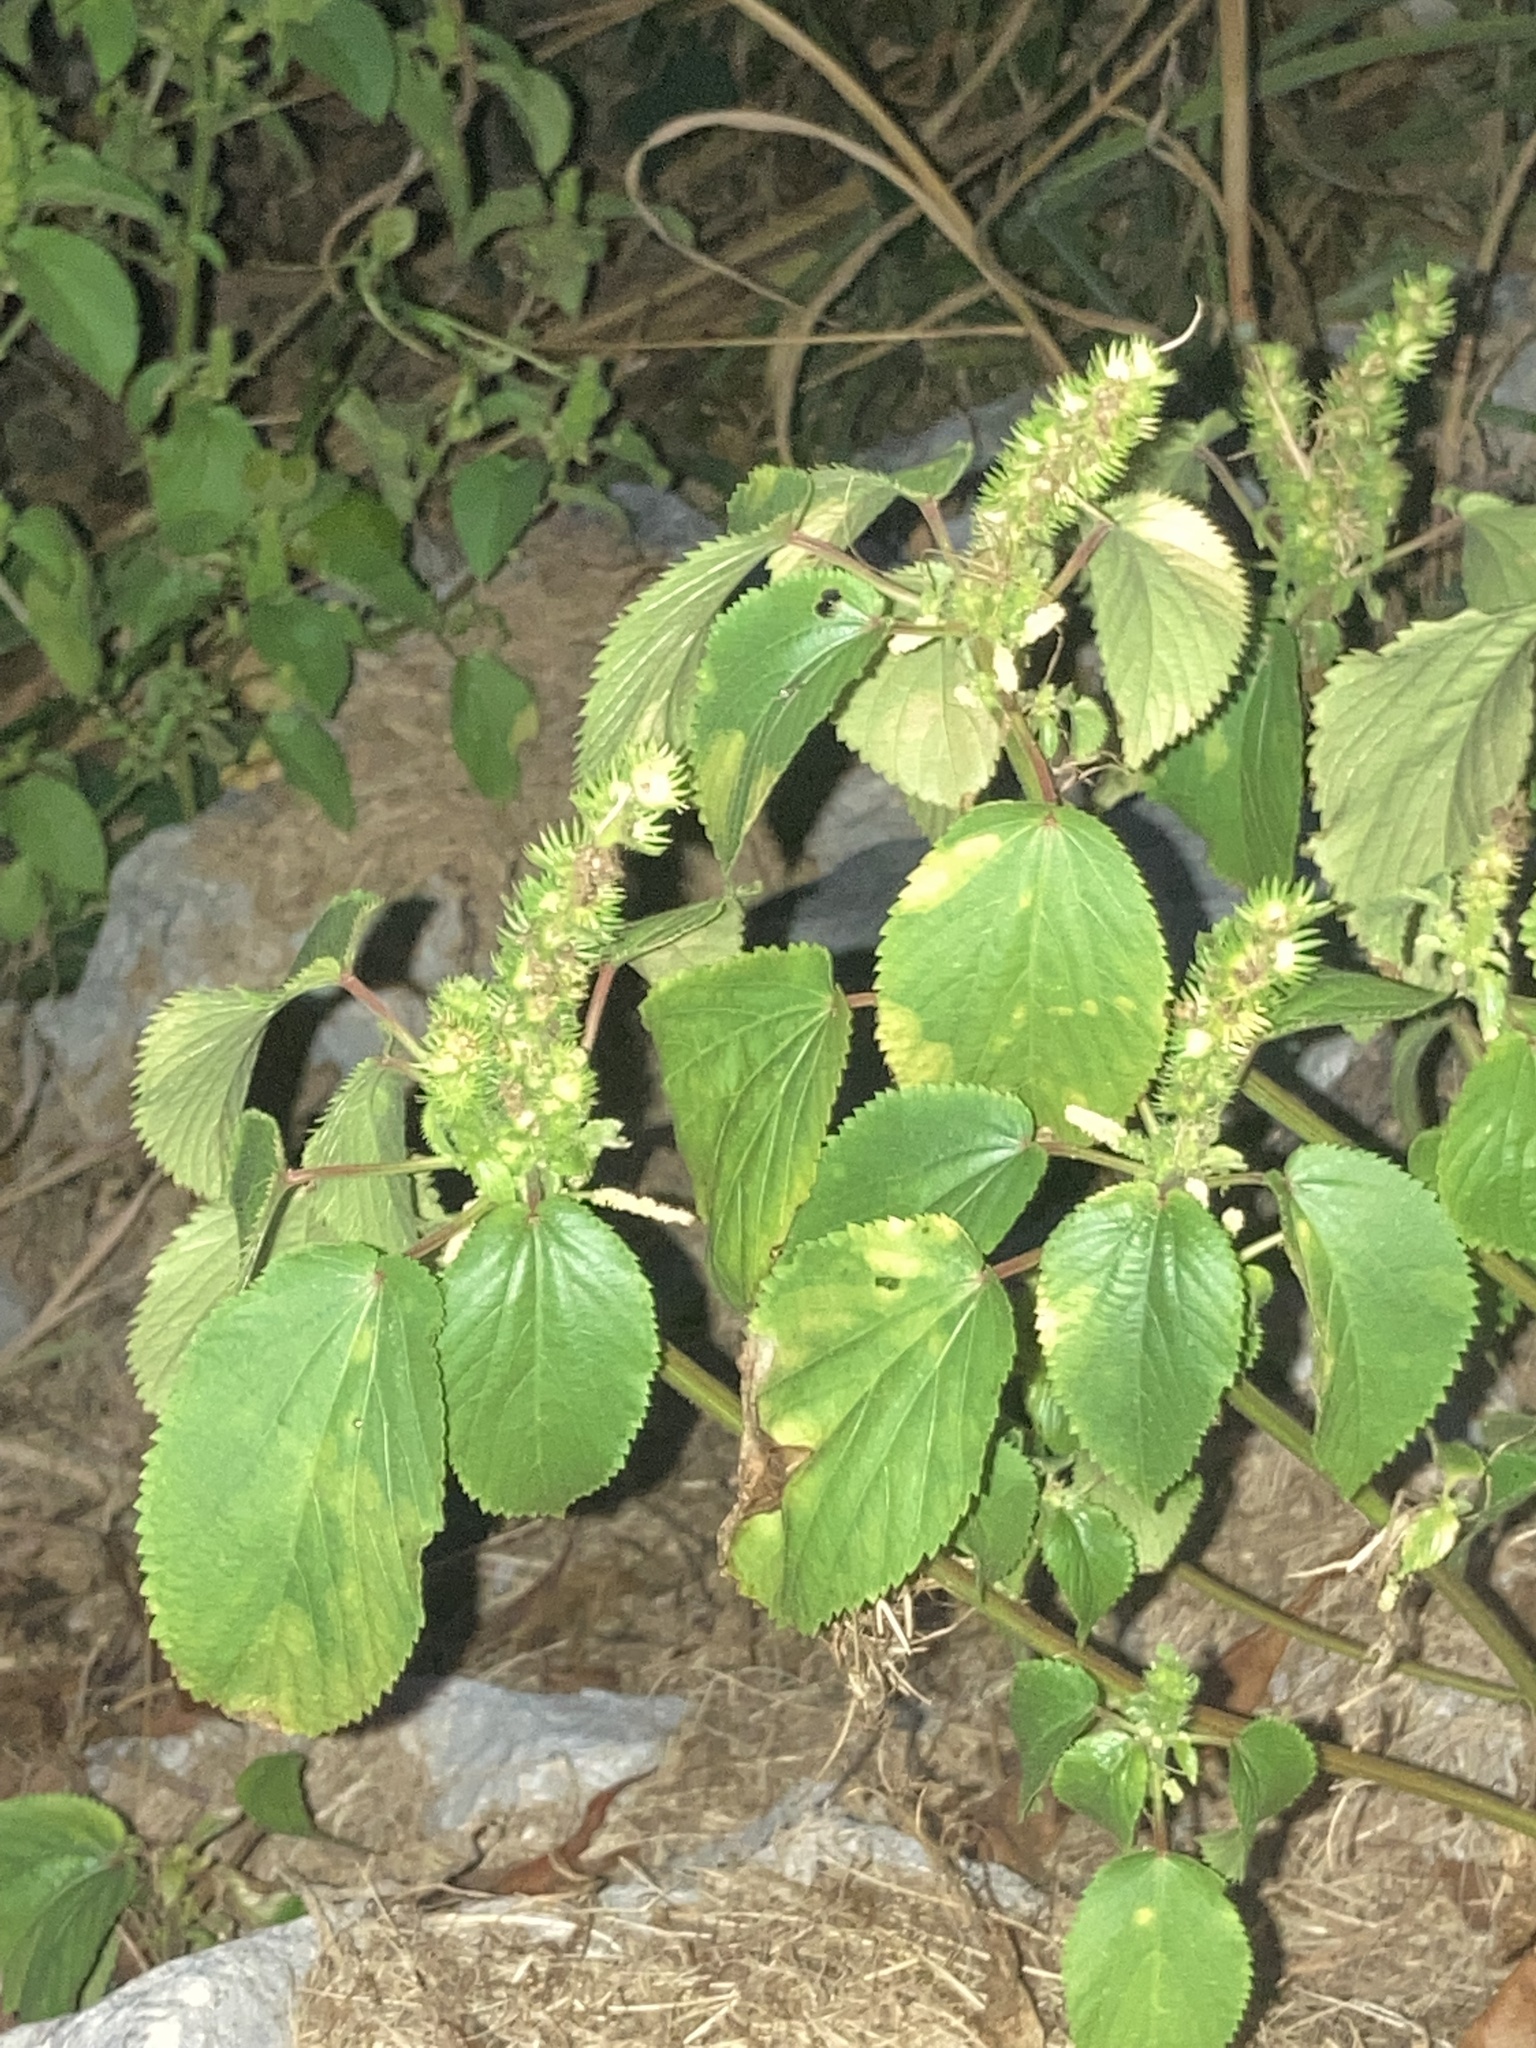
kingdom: Plantae
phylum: Tracheophyta
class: Magnoliopsida
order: Malpighiales
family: Euphorbiaceae
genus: Acalypha
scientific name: Acalypha ostryifolia
